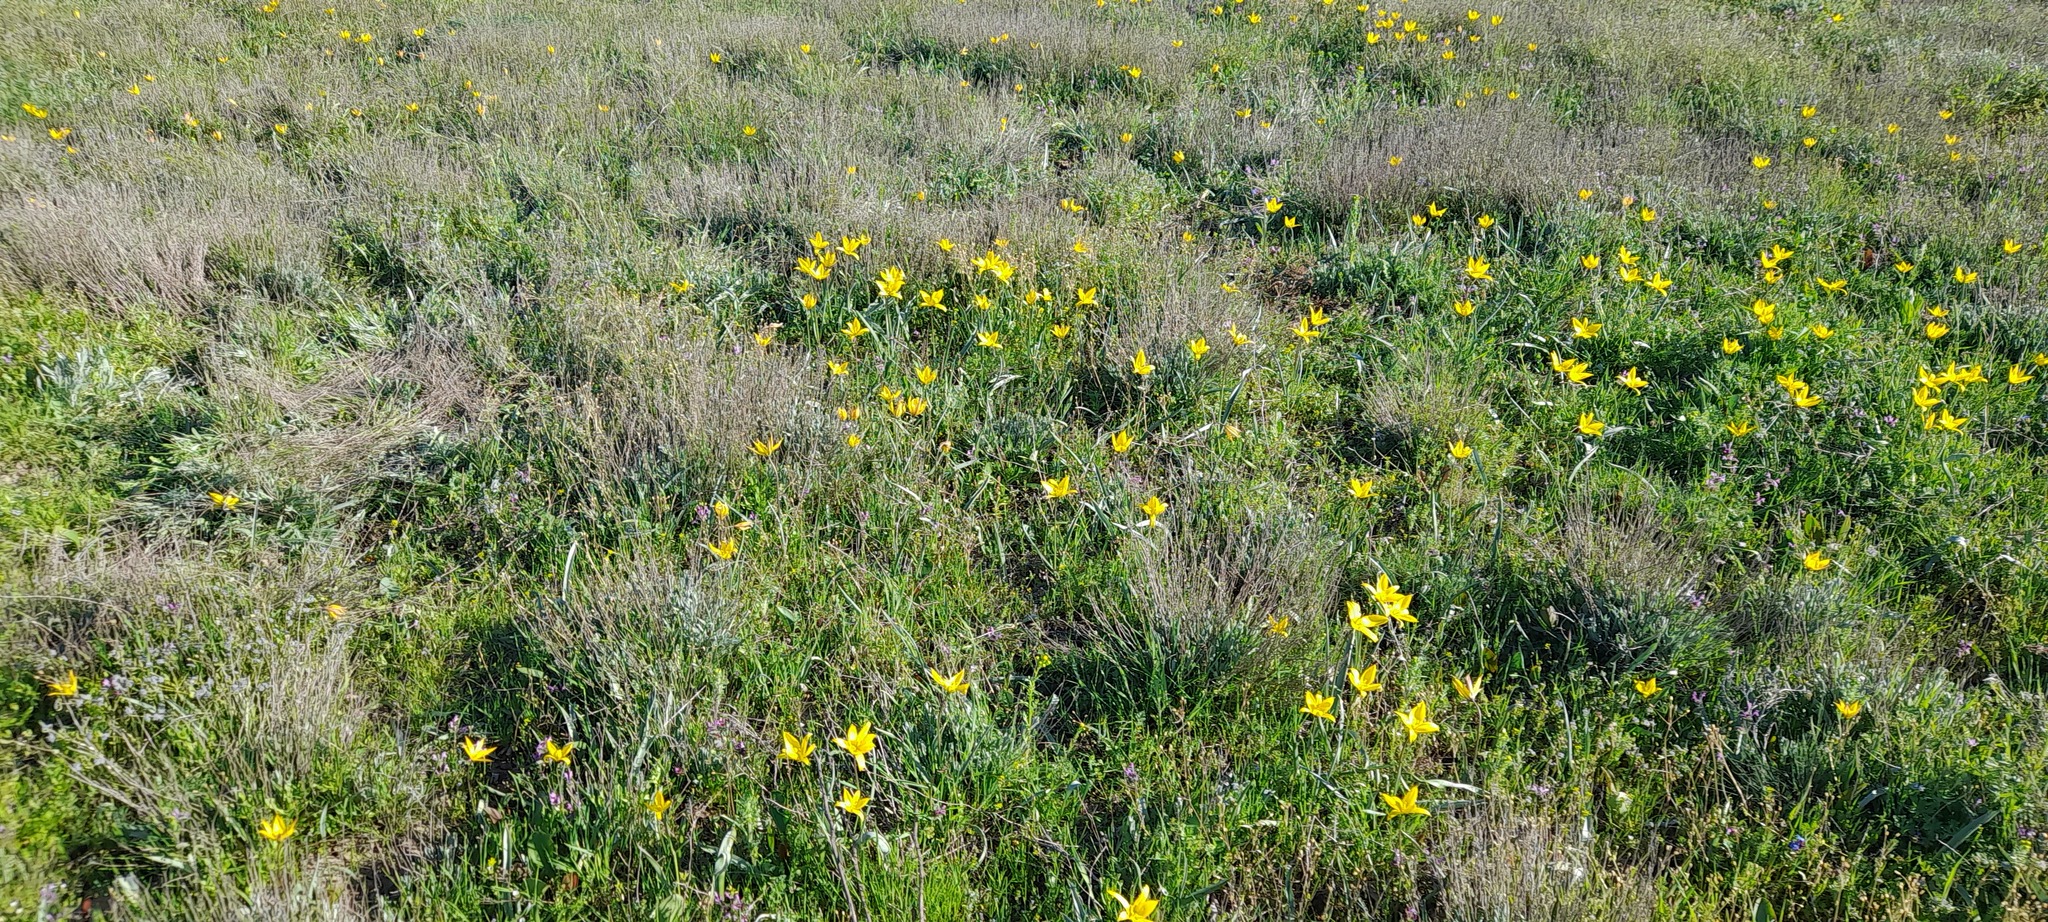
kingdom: Plantae
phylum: Tracheophyta
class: Liliopsida
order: Liliales
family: Liliaceae
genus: Tulipa
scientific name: Tulipa sylvestris
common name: Wild tulip
